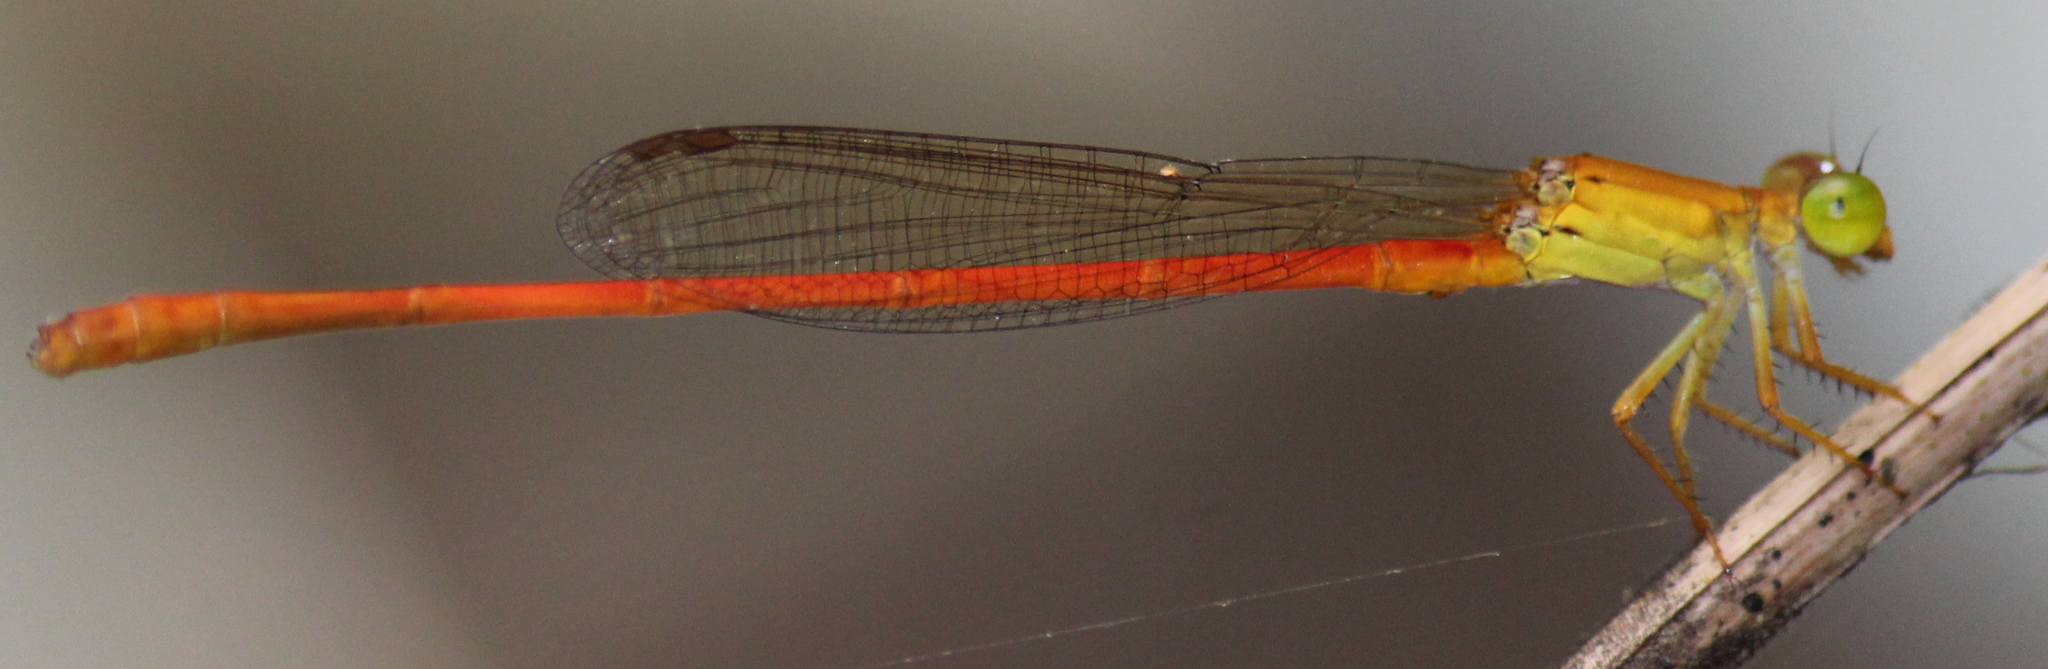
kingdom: Animalia
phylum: Arthropoda
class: Insecta
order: Odonata
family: Coenagrionidae
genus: Ceriagrion
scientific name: Ceriagrion glabrum
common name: Common pond damsel
